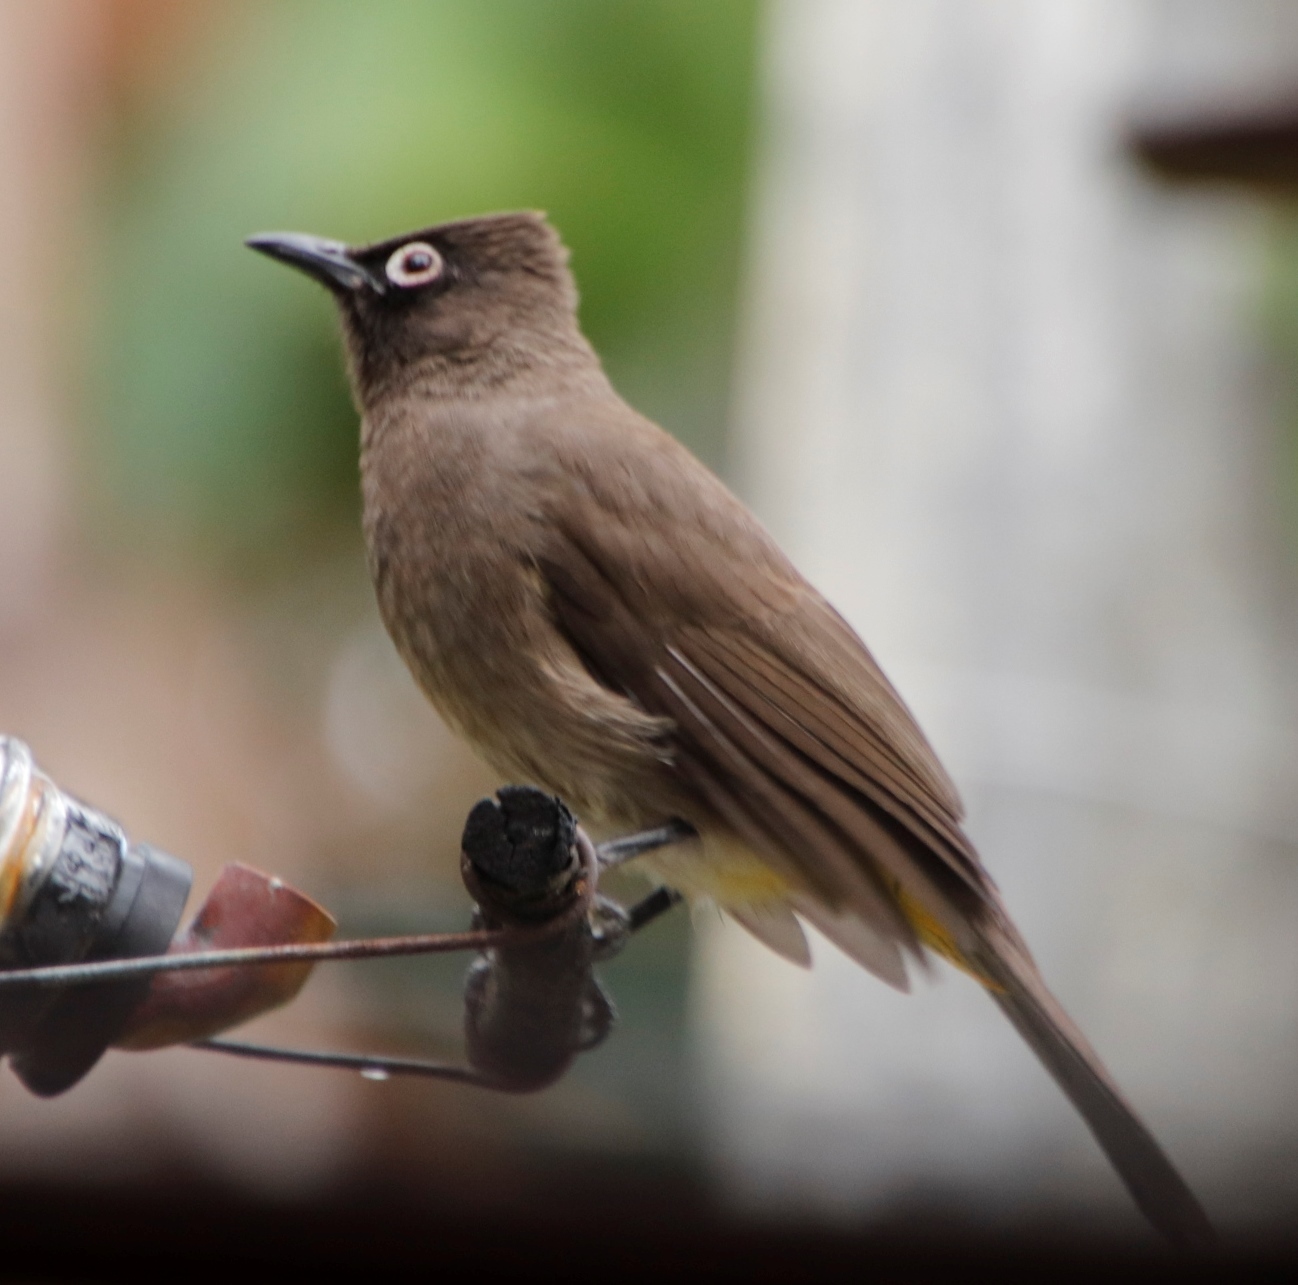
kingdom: Animalia
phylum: Chordata
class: Aves
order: Passeriformes
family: Pycnonotidae
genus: Pycnonotus
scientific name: Pycnonotus capensis
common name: Cape bulbul
